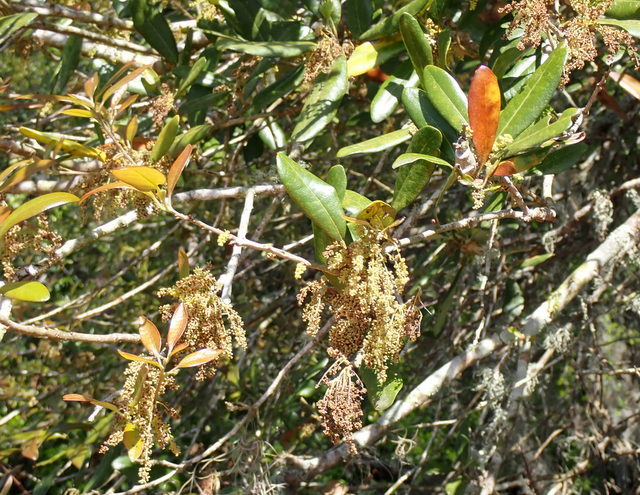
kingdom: Plantae
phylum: Tracheophyta
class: Magnoliopsida
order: Fagales
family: Fagaceae
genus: Quercus
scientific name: Quercus virginiana
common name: Southern live oak
